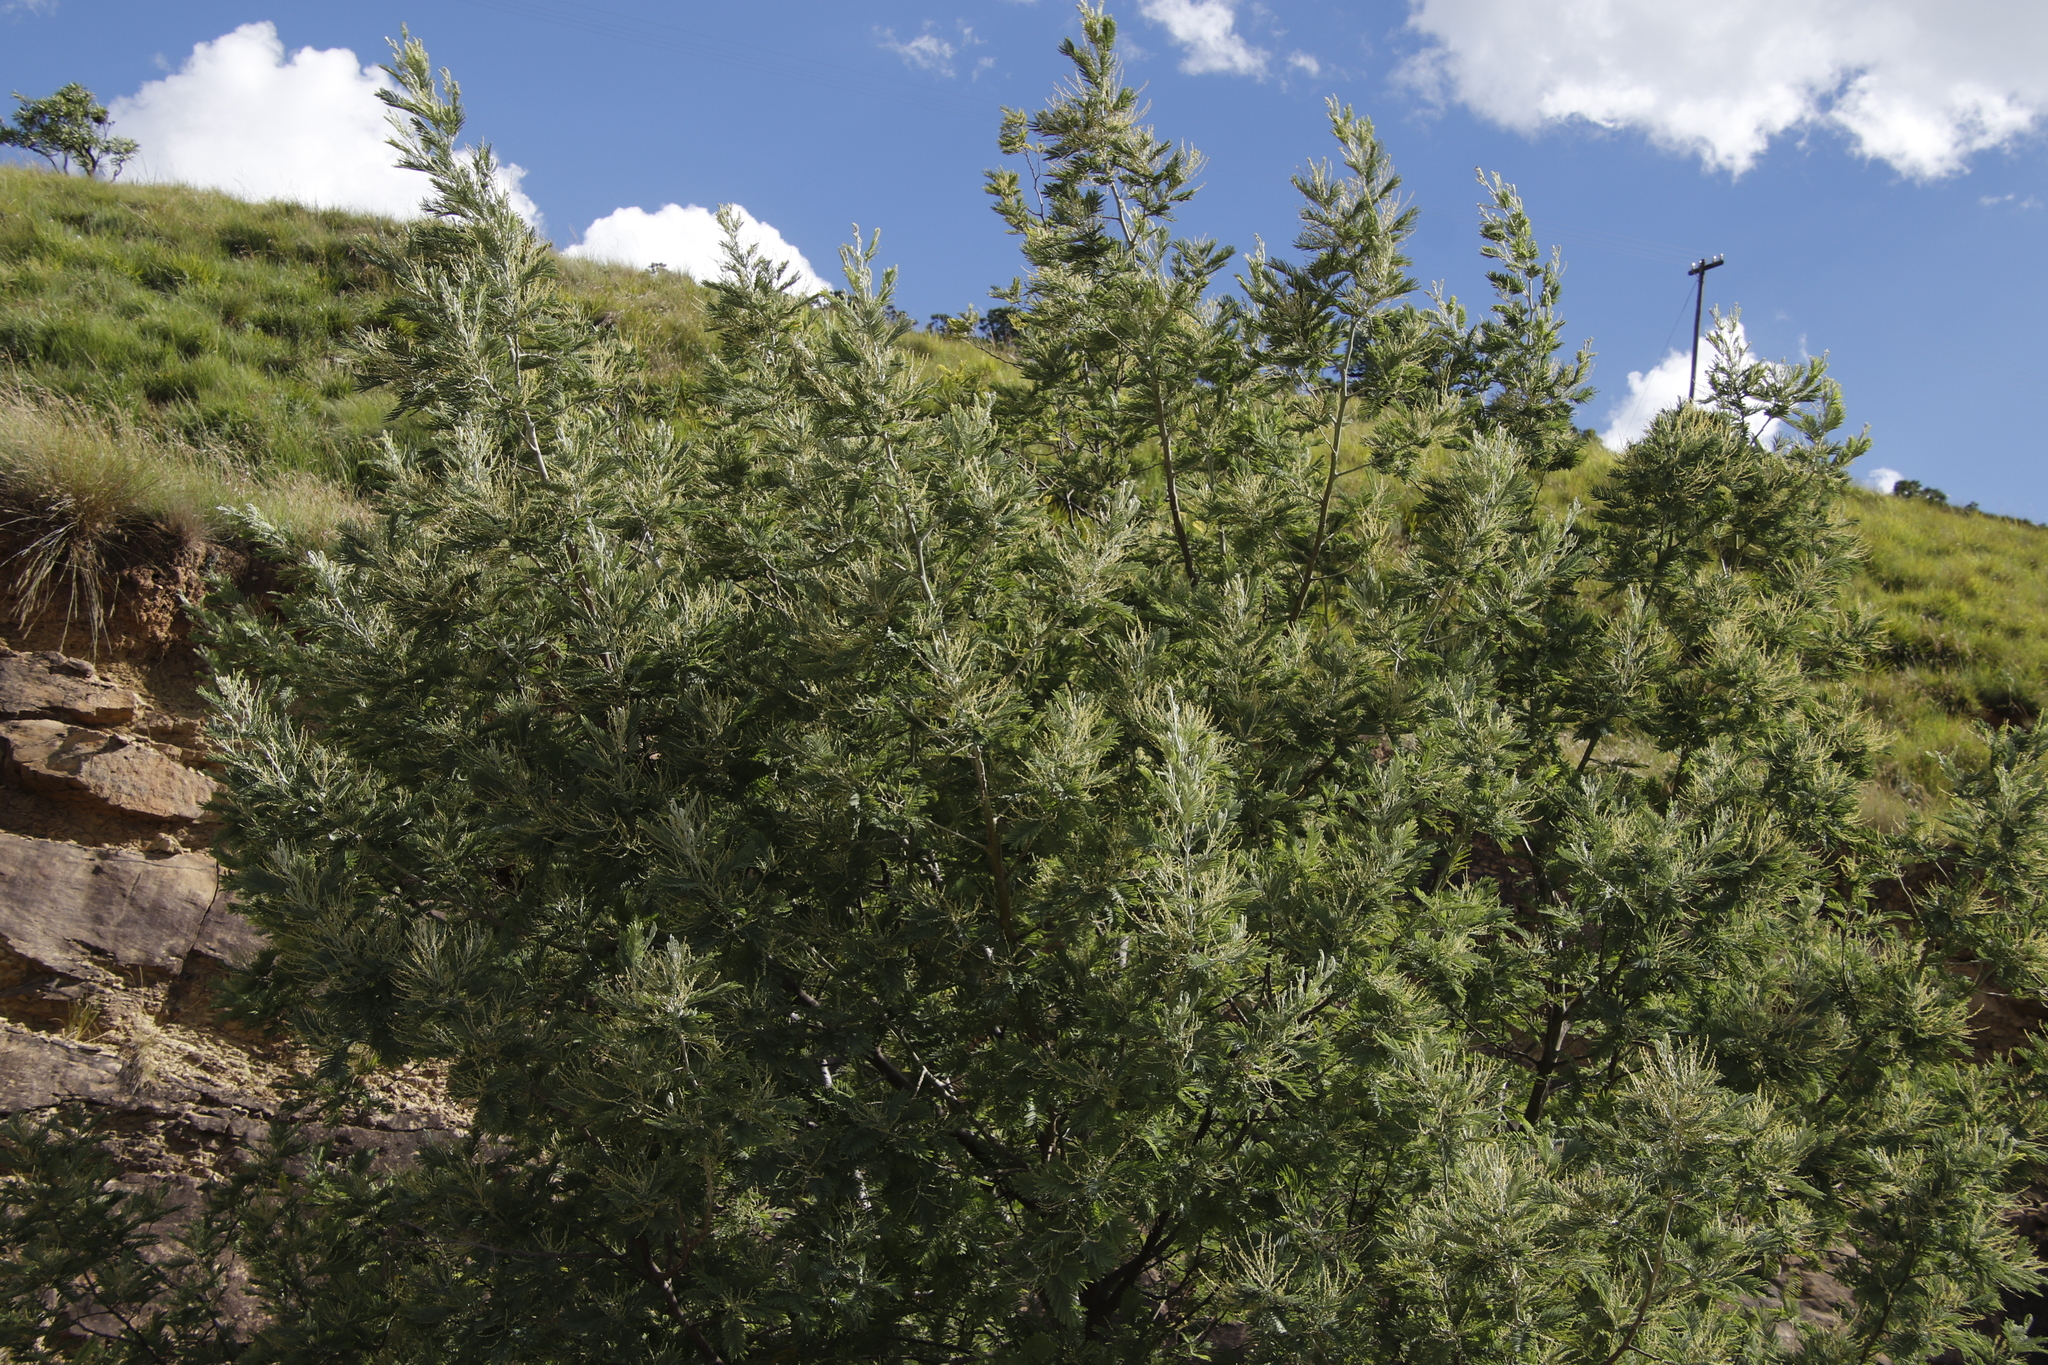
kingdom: Plantae
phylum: Tracheophyta
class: Magnoliopsida
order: Fabales
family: Fabaceae
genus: Acacia
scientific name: Acacia dealbata
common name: Silver wattle
